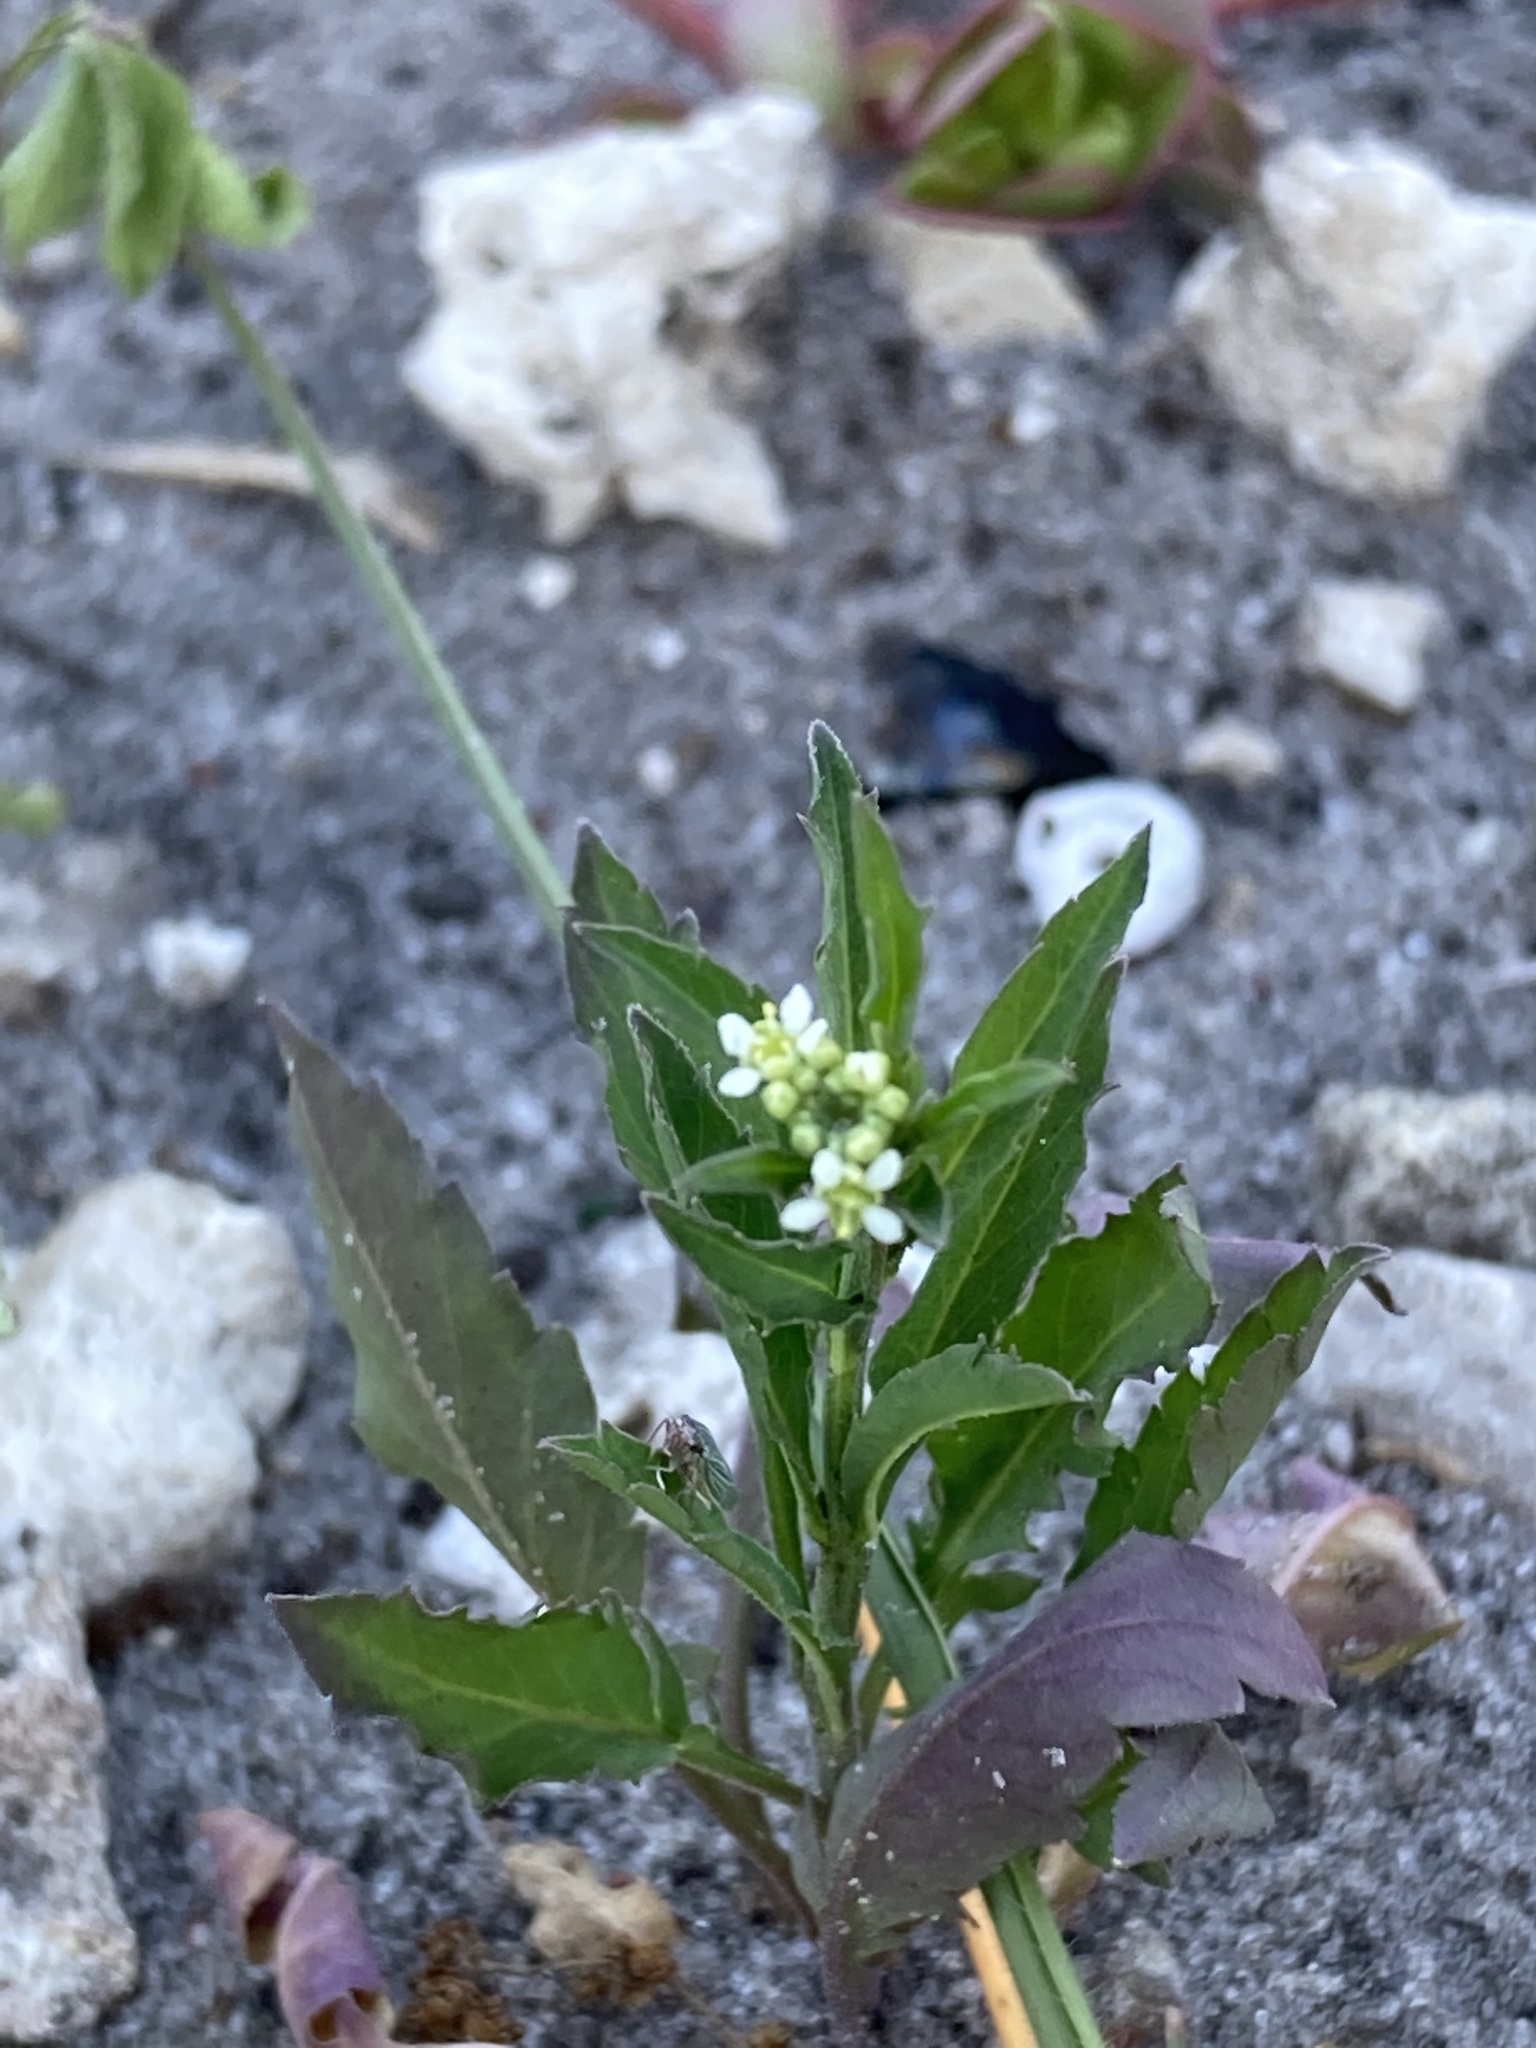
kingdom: Plantae
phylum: Tracheophyta
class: Magnoliopsida
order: Brassicales
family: Brassicaceae
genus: Lepidium
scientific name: Lepidium virginicum
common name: Least pepperwort
